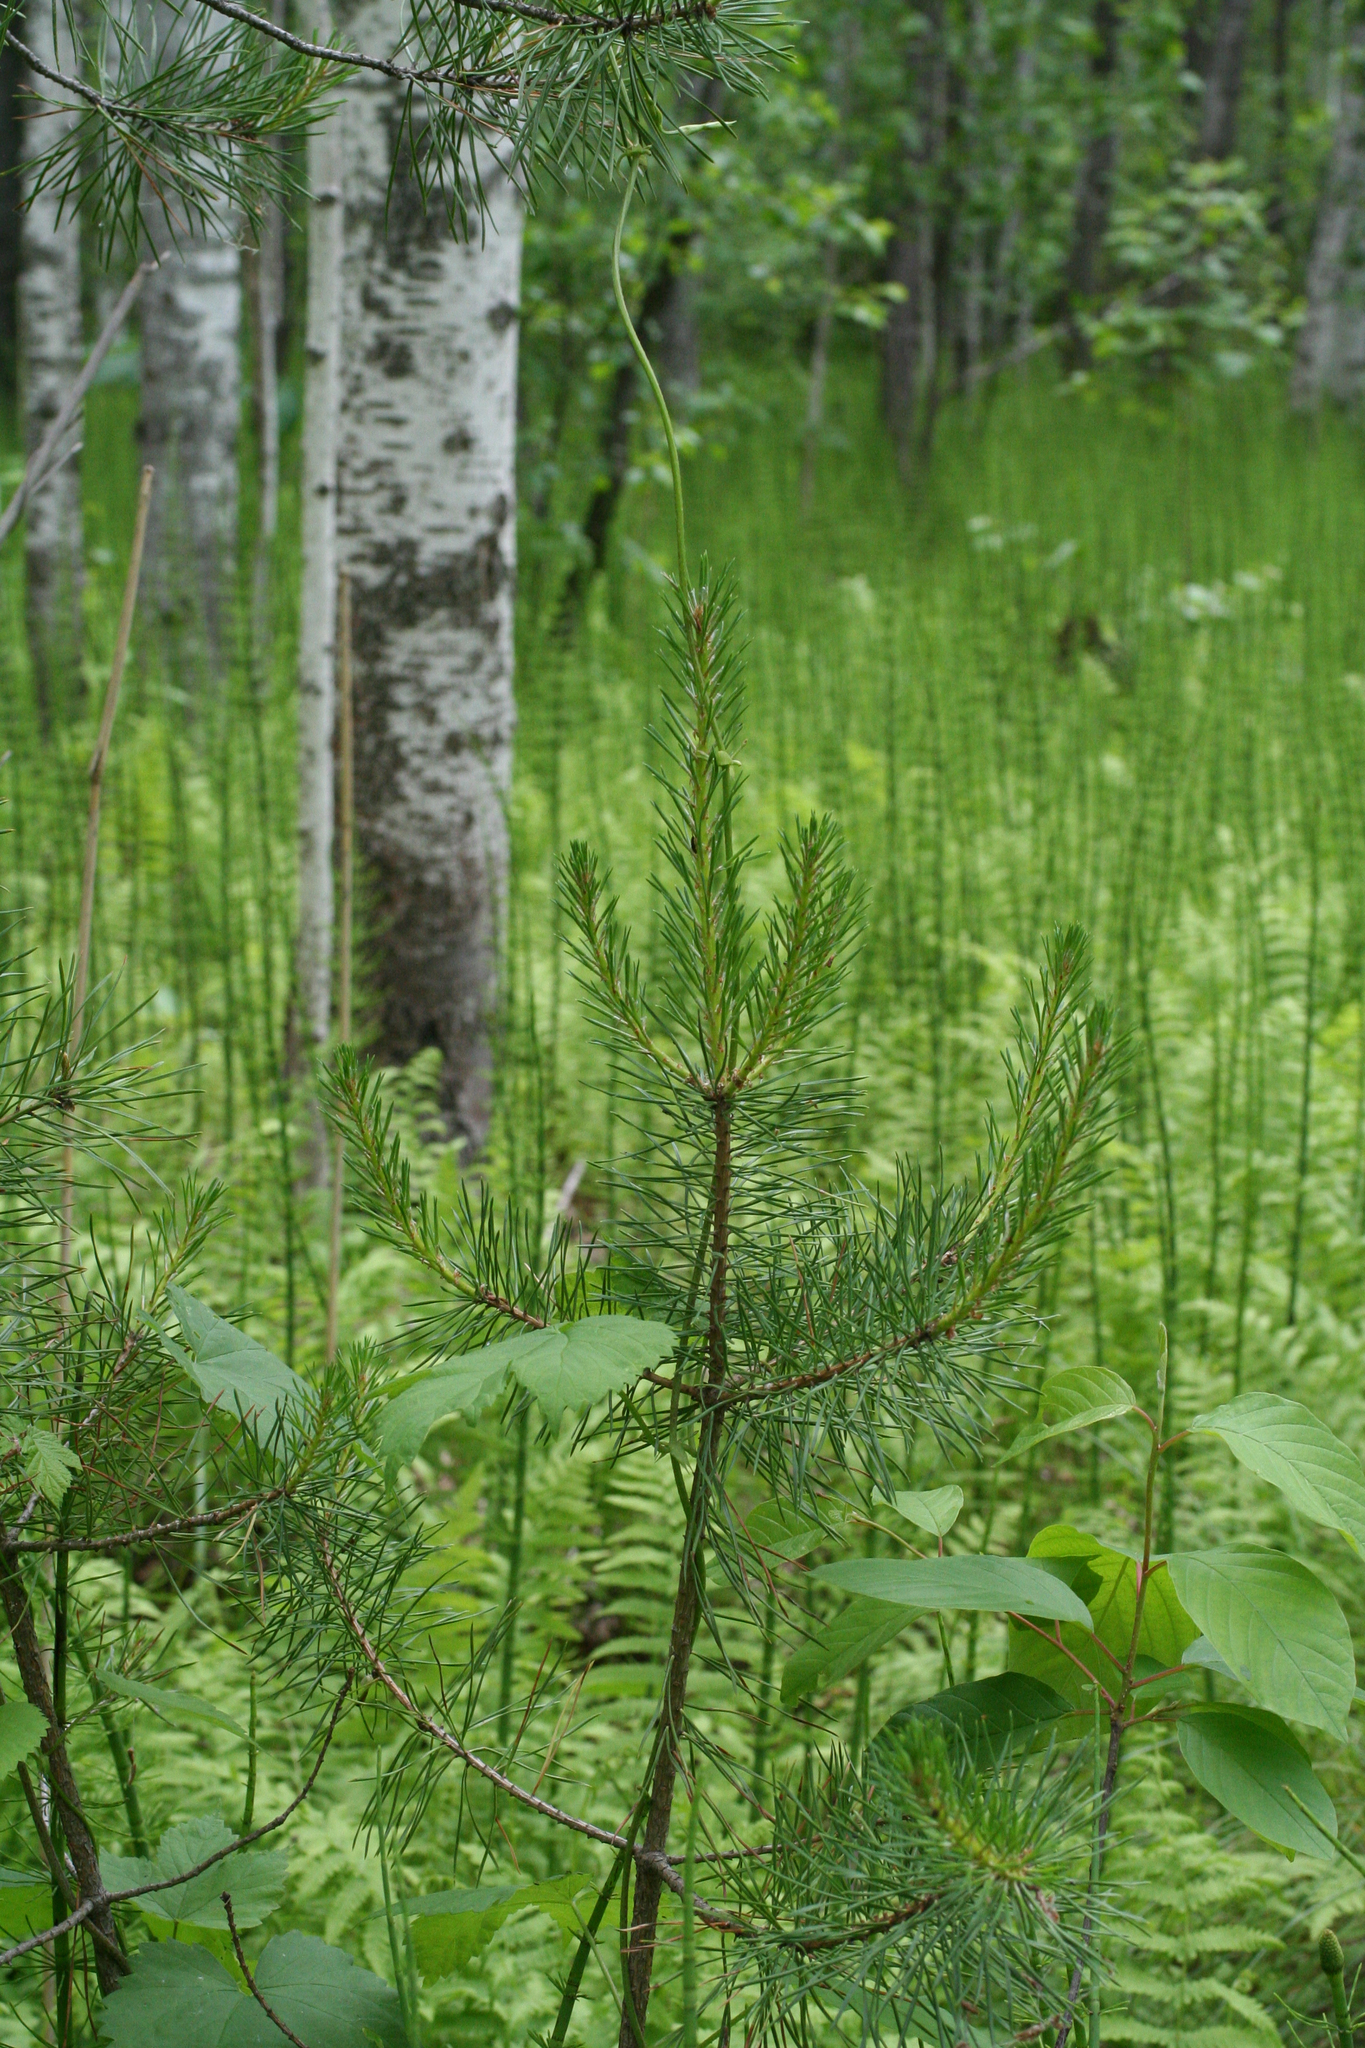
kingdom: Plantae
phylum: Tracheophyta
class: Pinopsida
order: Pinales
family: Pinaceae
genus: Pinus
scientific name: Pinus sylvestris
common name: Scots pine
